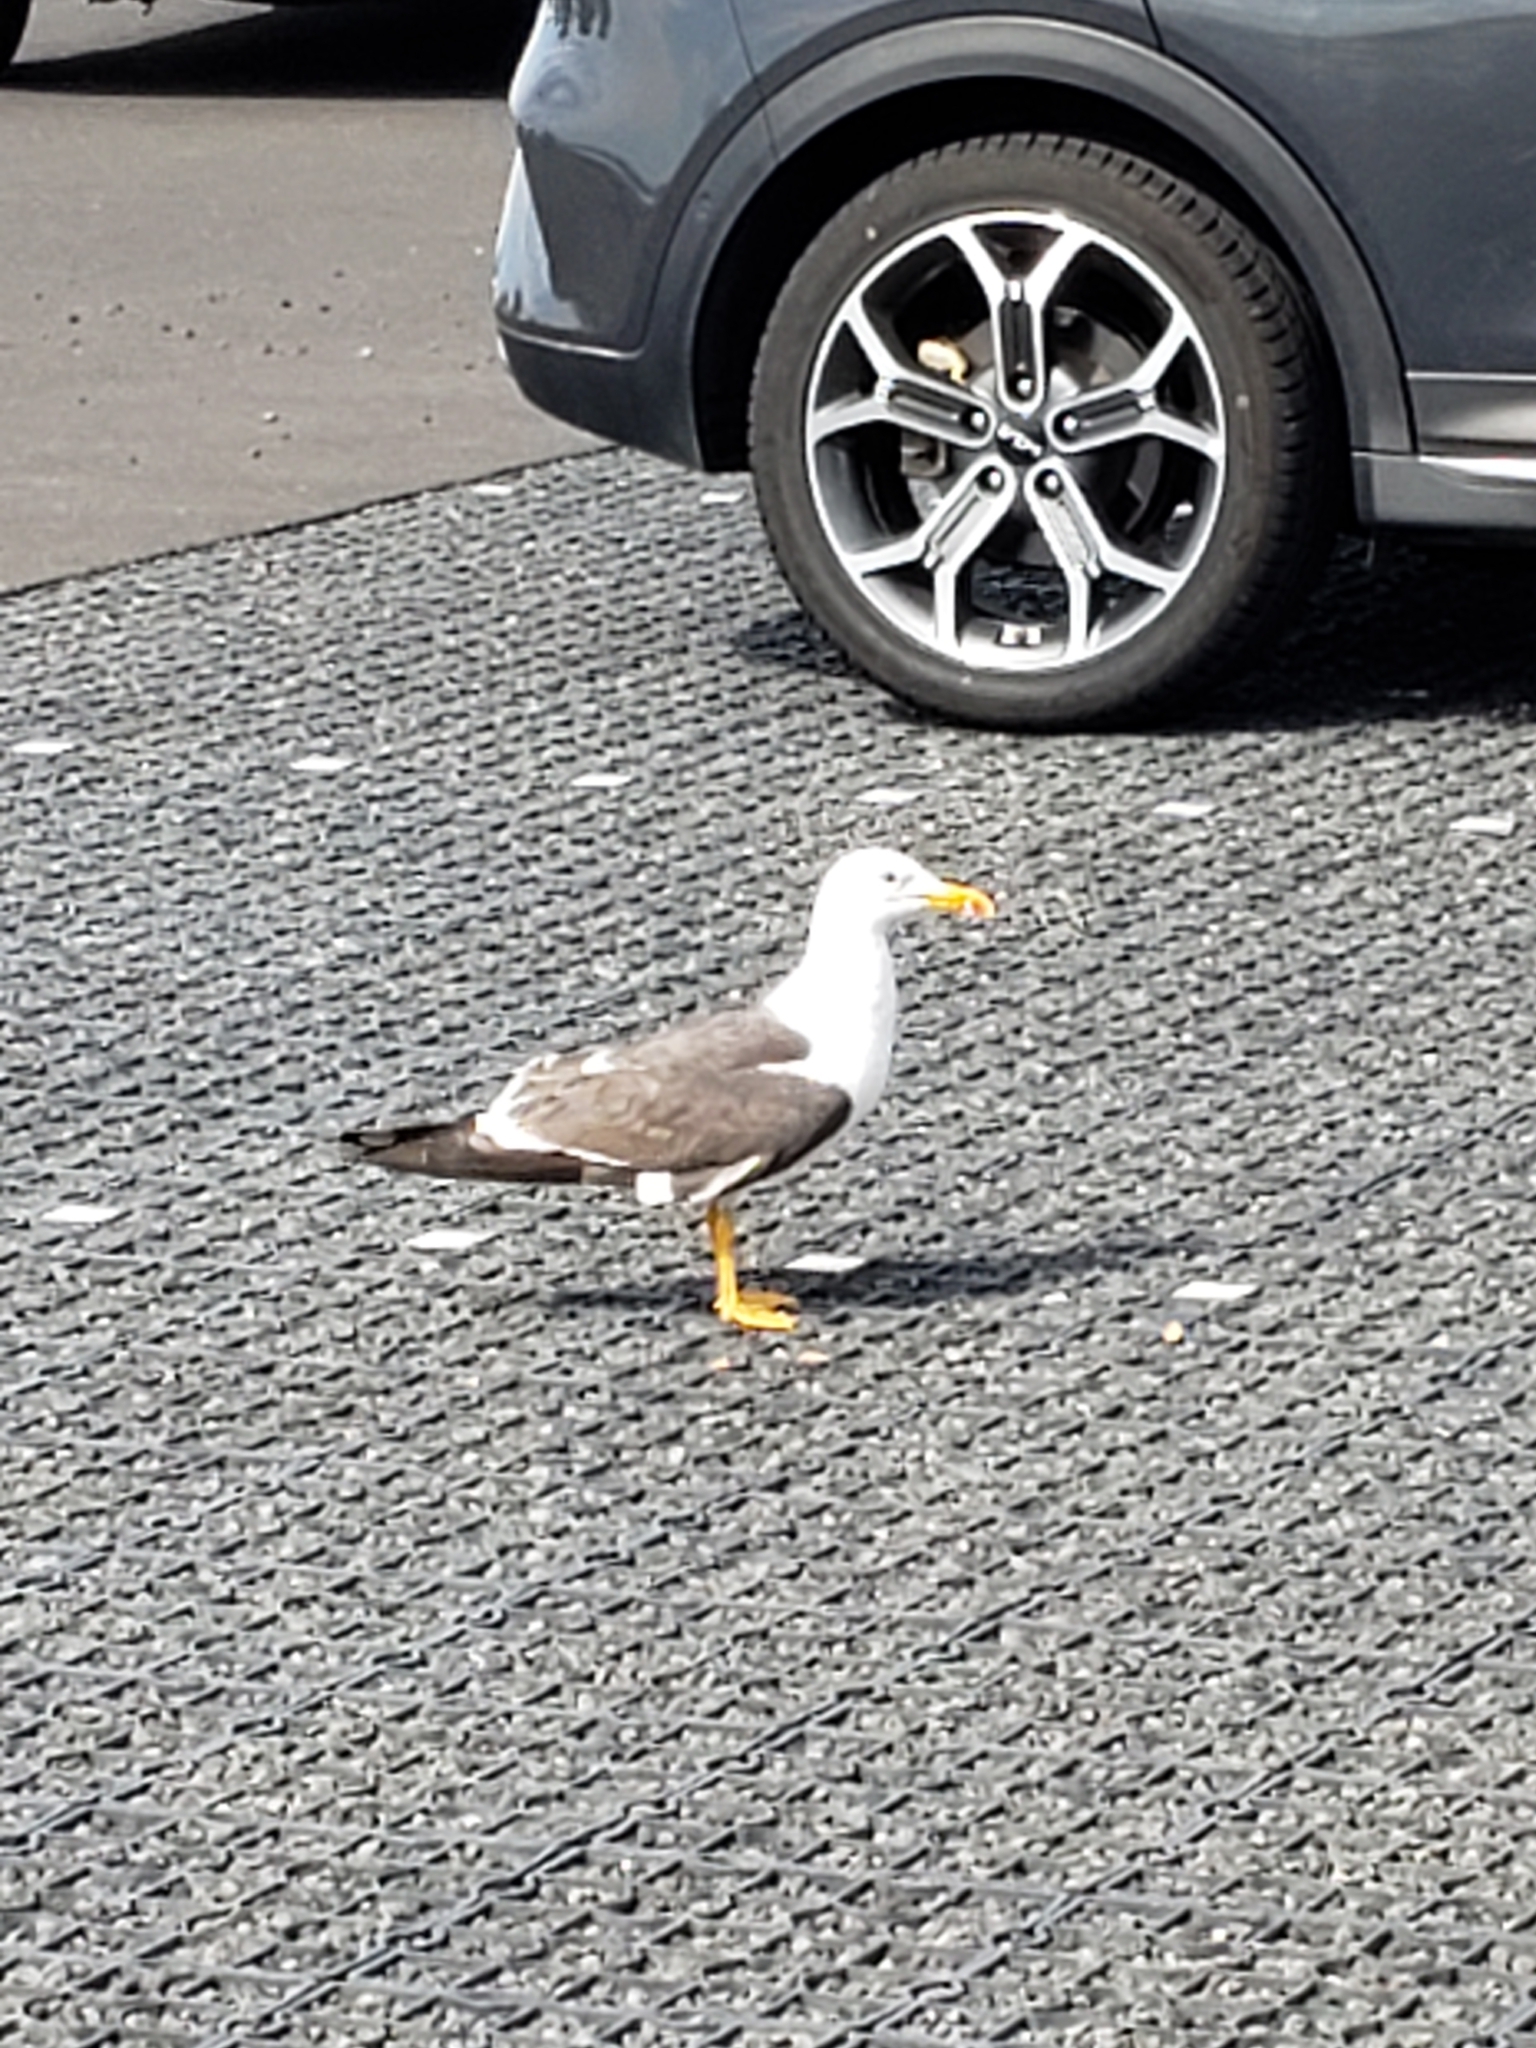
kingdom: Animalia
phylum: Chordata
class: Aves
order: Charadriiformes
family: Laridae
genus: Larus
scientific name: Larus fuscus
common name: Lesser black-backed gull
